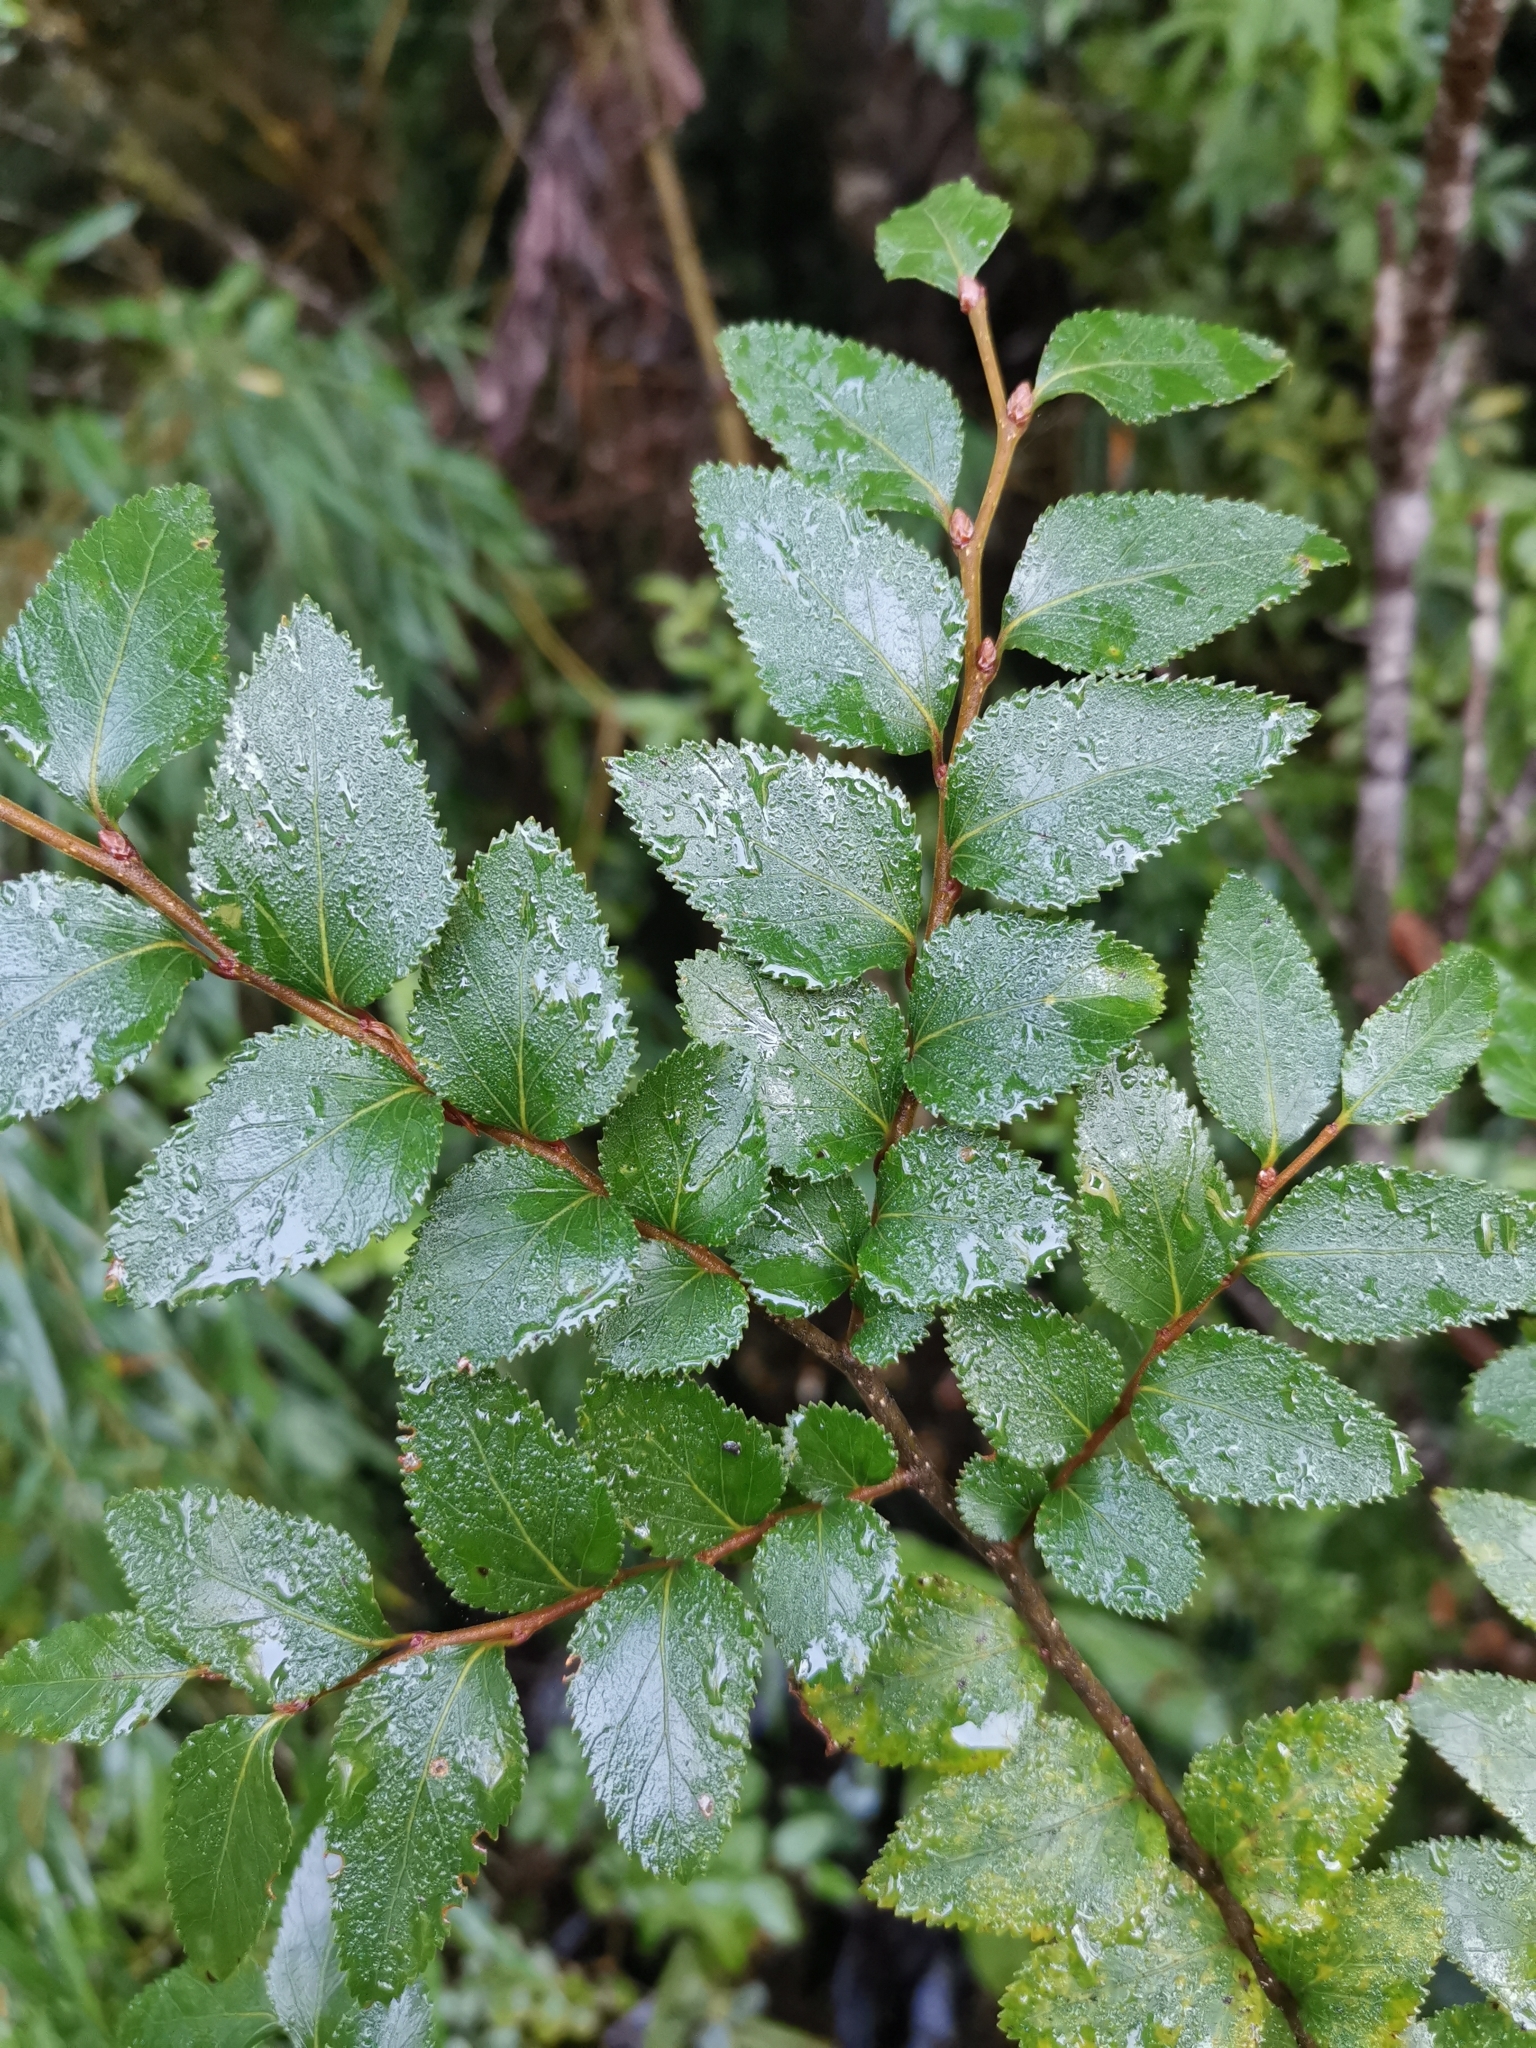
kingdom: Plantae
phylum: Tracheophyta
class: Magnoliopsida
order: Fagales
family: Nothofagaceae
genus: Nothofagus
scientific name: Nothofagus nitida
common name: Chiloé's coigue
